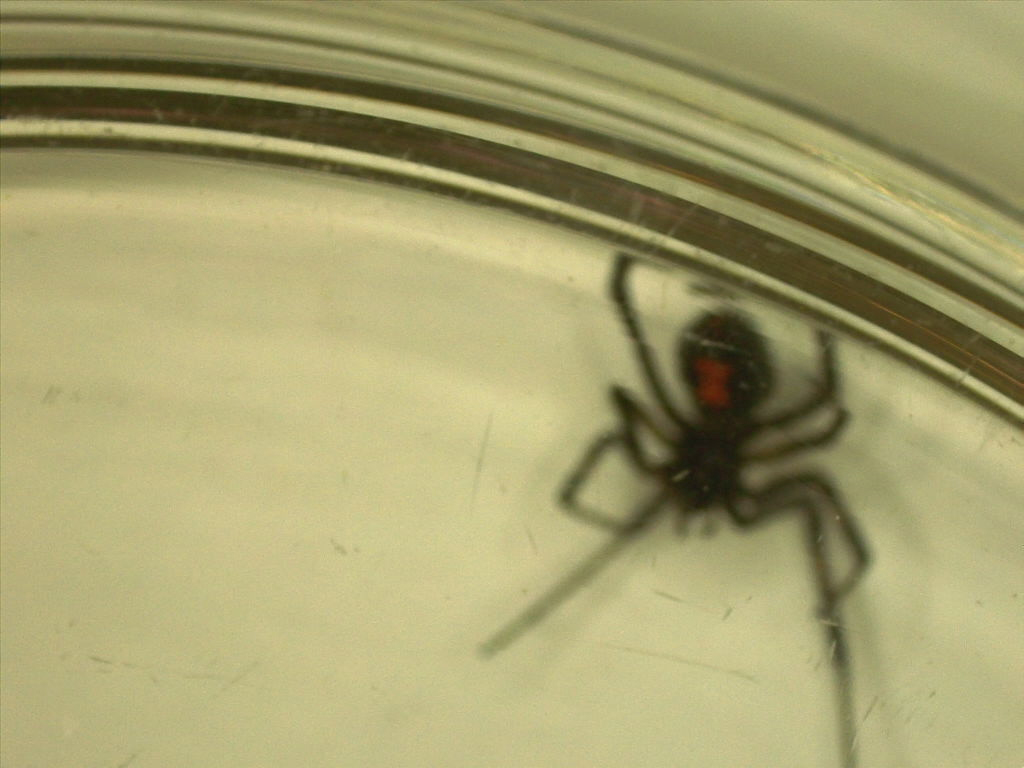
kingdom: Animalia
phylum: Arthropoda
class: Arachnida
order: Araneae
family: Theridiidae
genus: Latrodectus
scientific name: Latrodectus hesperus
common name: Western black widow
